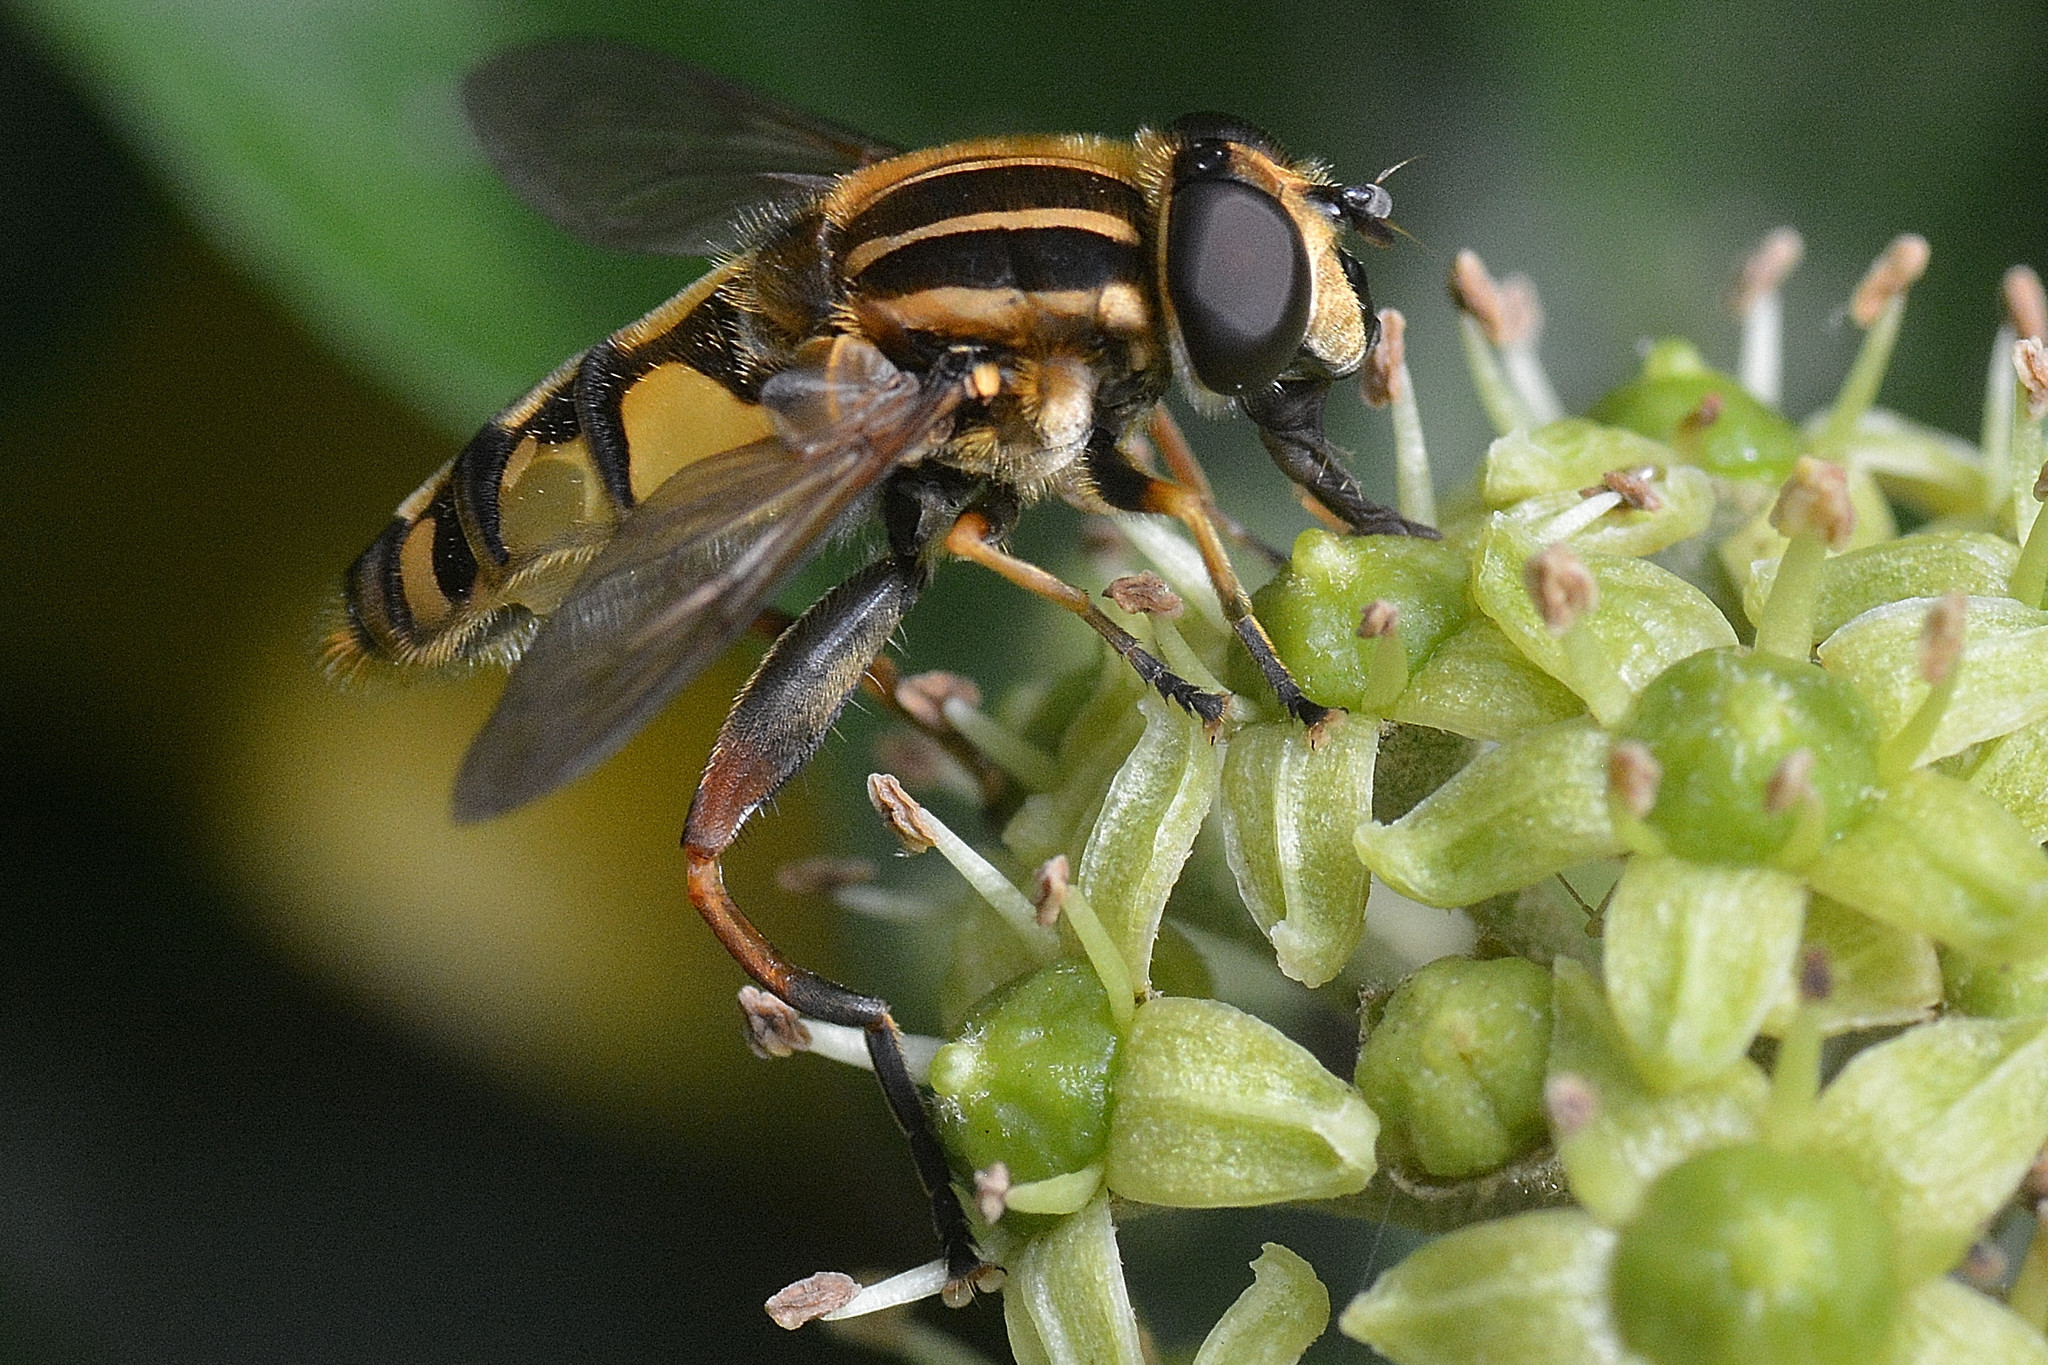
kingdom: Animalia
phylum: Arthropoda
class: Insecta
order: Diptera
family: Syrphidae
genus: Helophilus
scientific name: Helophilus pendulus
